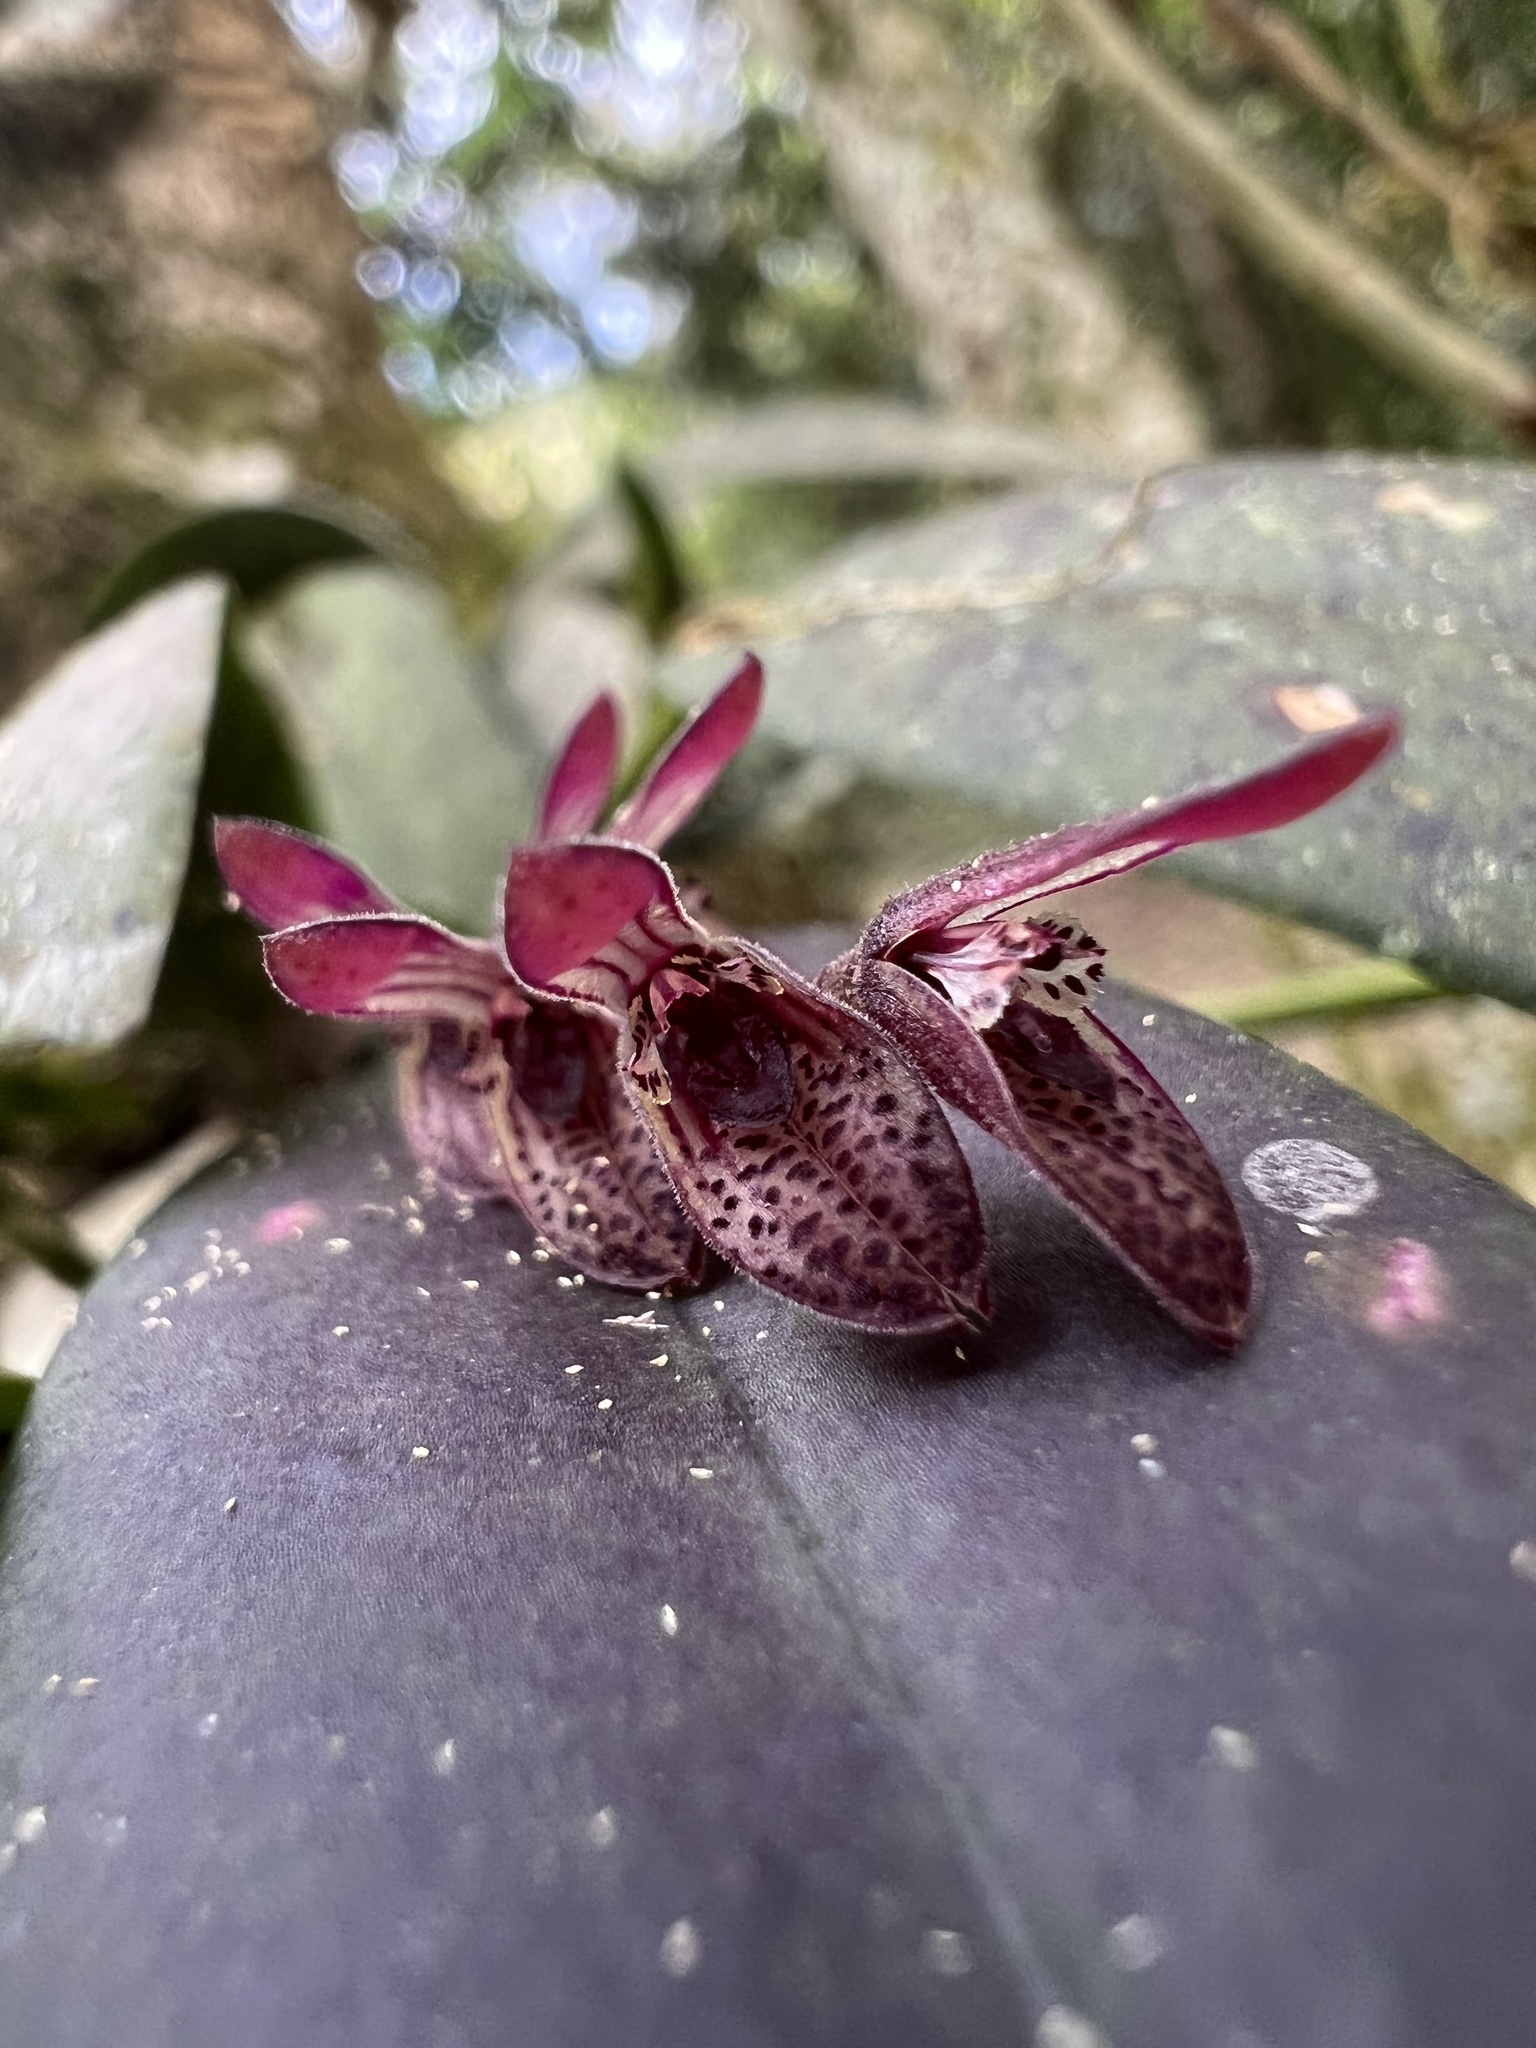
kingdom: Plantae
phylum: Tracheophyta
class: Liliopsida
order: Asparagales
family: Orchidaceae
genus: Acianthera
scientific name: Acianthera pubescens
